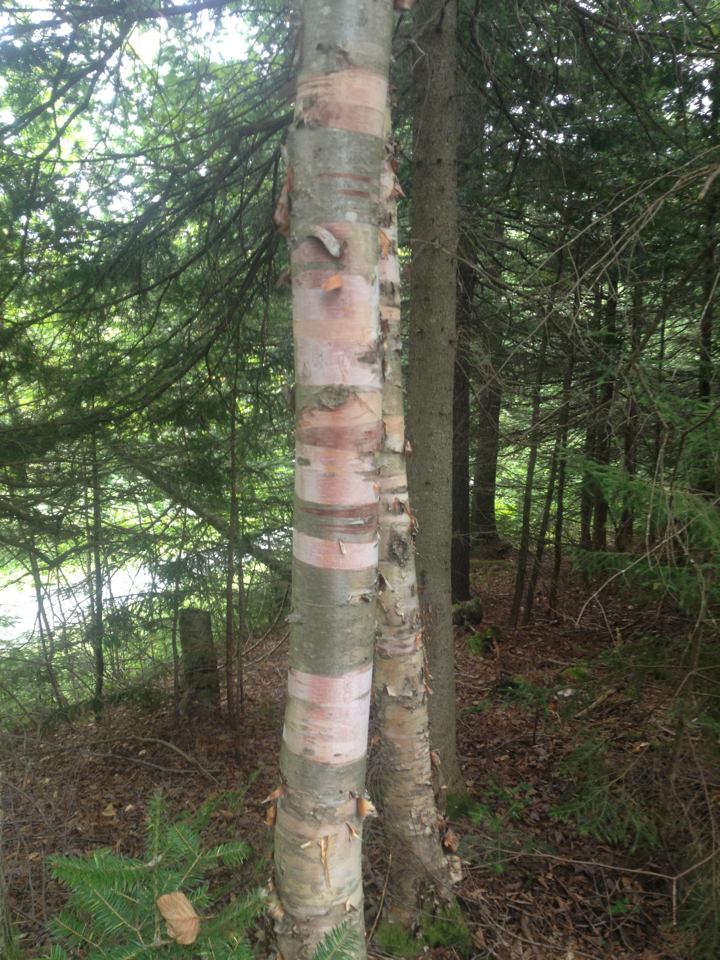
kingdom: Plantae
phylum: Tracheophyta
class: Magnoliopsida
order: Fagales
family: Betulaceae
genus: Betula
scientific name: Betula cordifolia
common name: Mountain white birch
